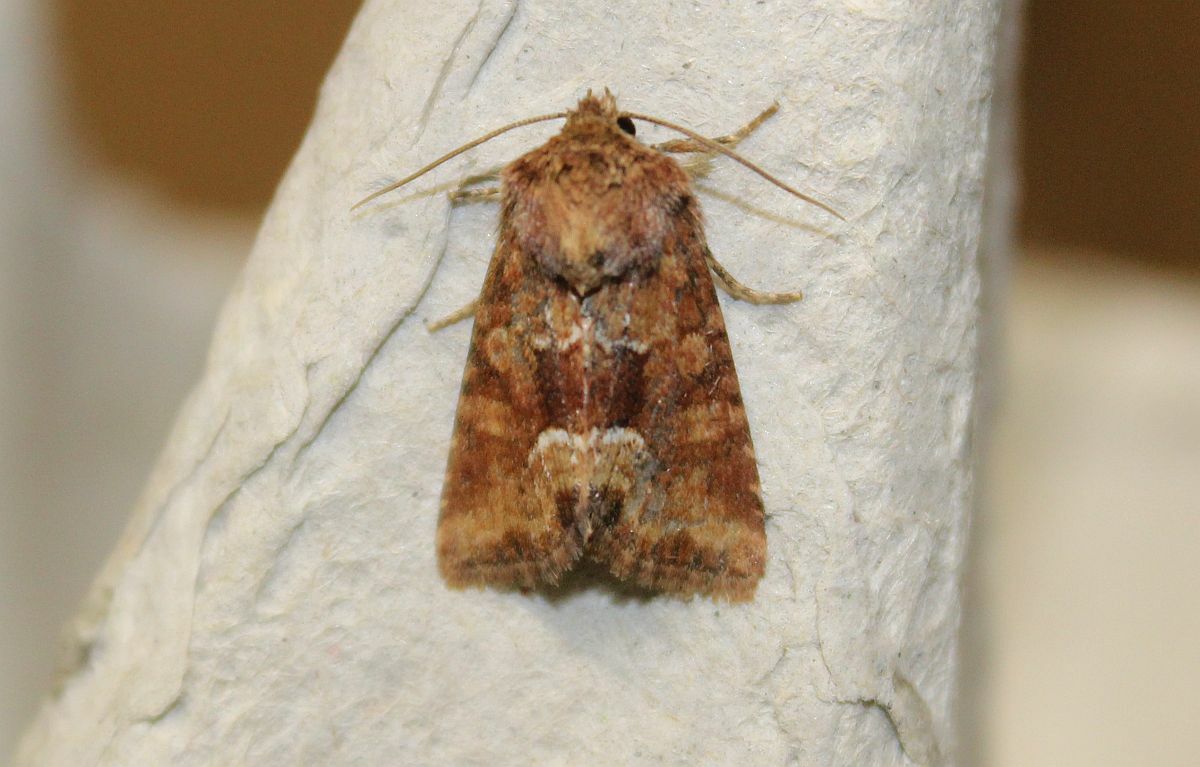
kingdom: Animalia
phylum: Arthropoda
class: Insecta
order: Lepidoptera
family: Noctuidae
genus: Oligia
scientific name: Oligia fasciuncula
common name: Middle-barred minor
